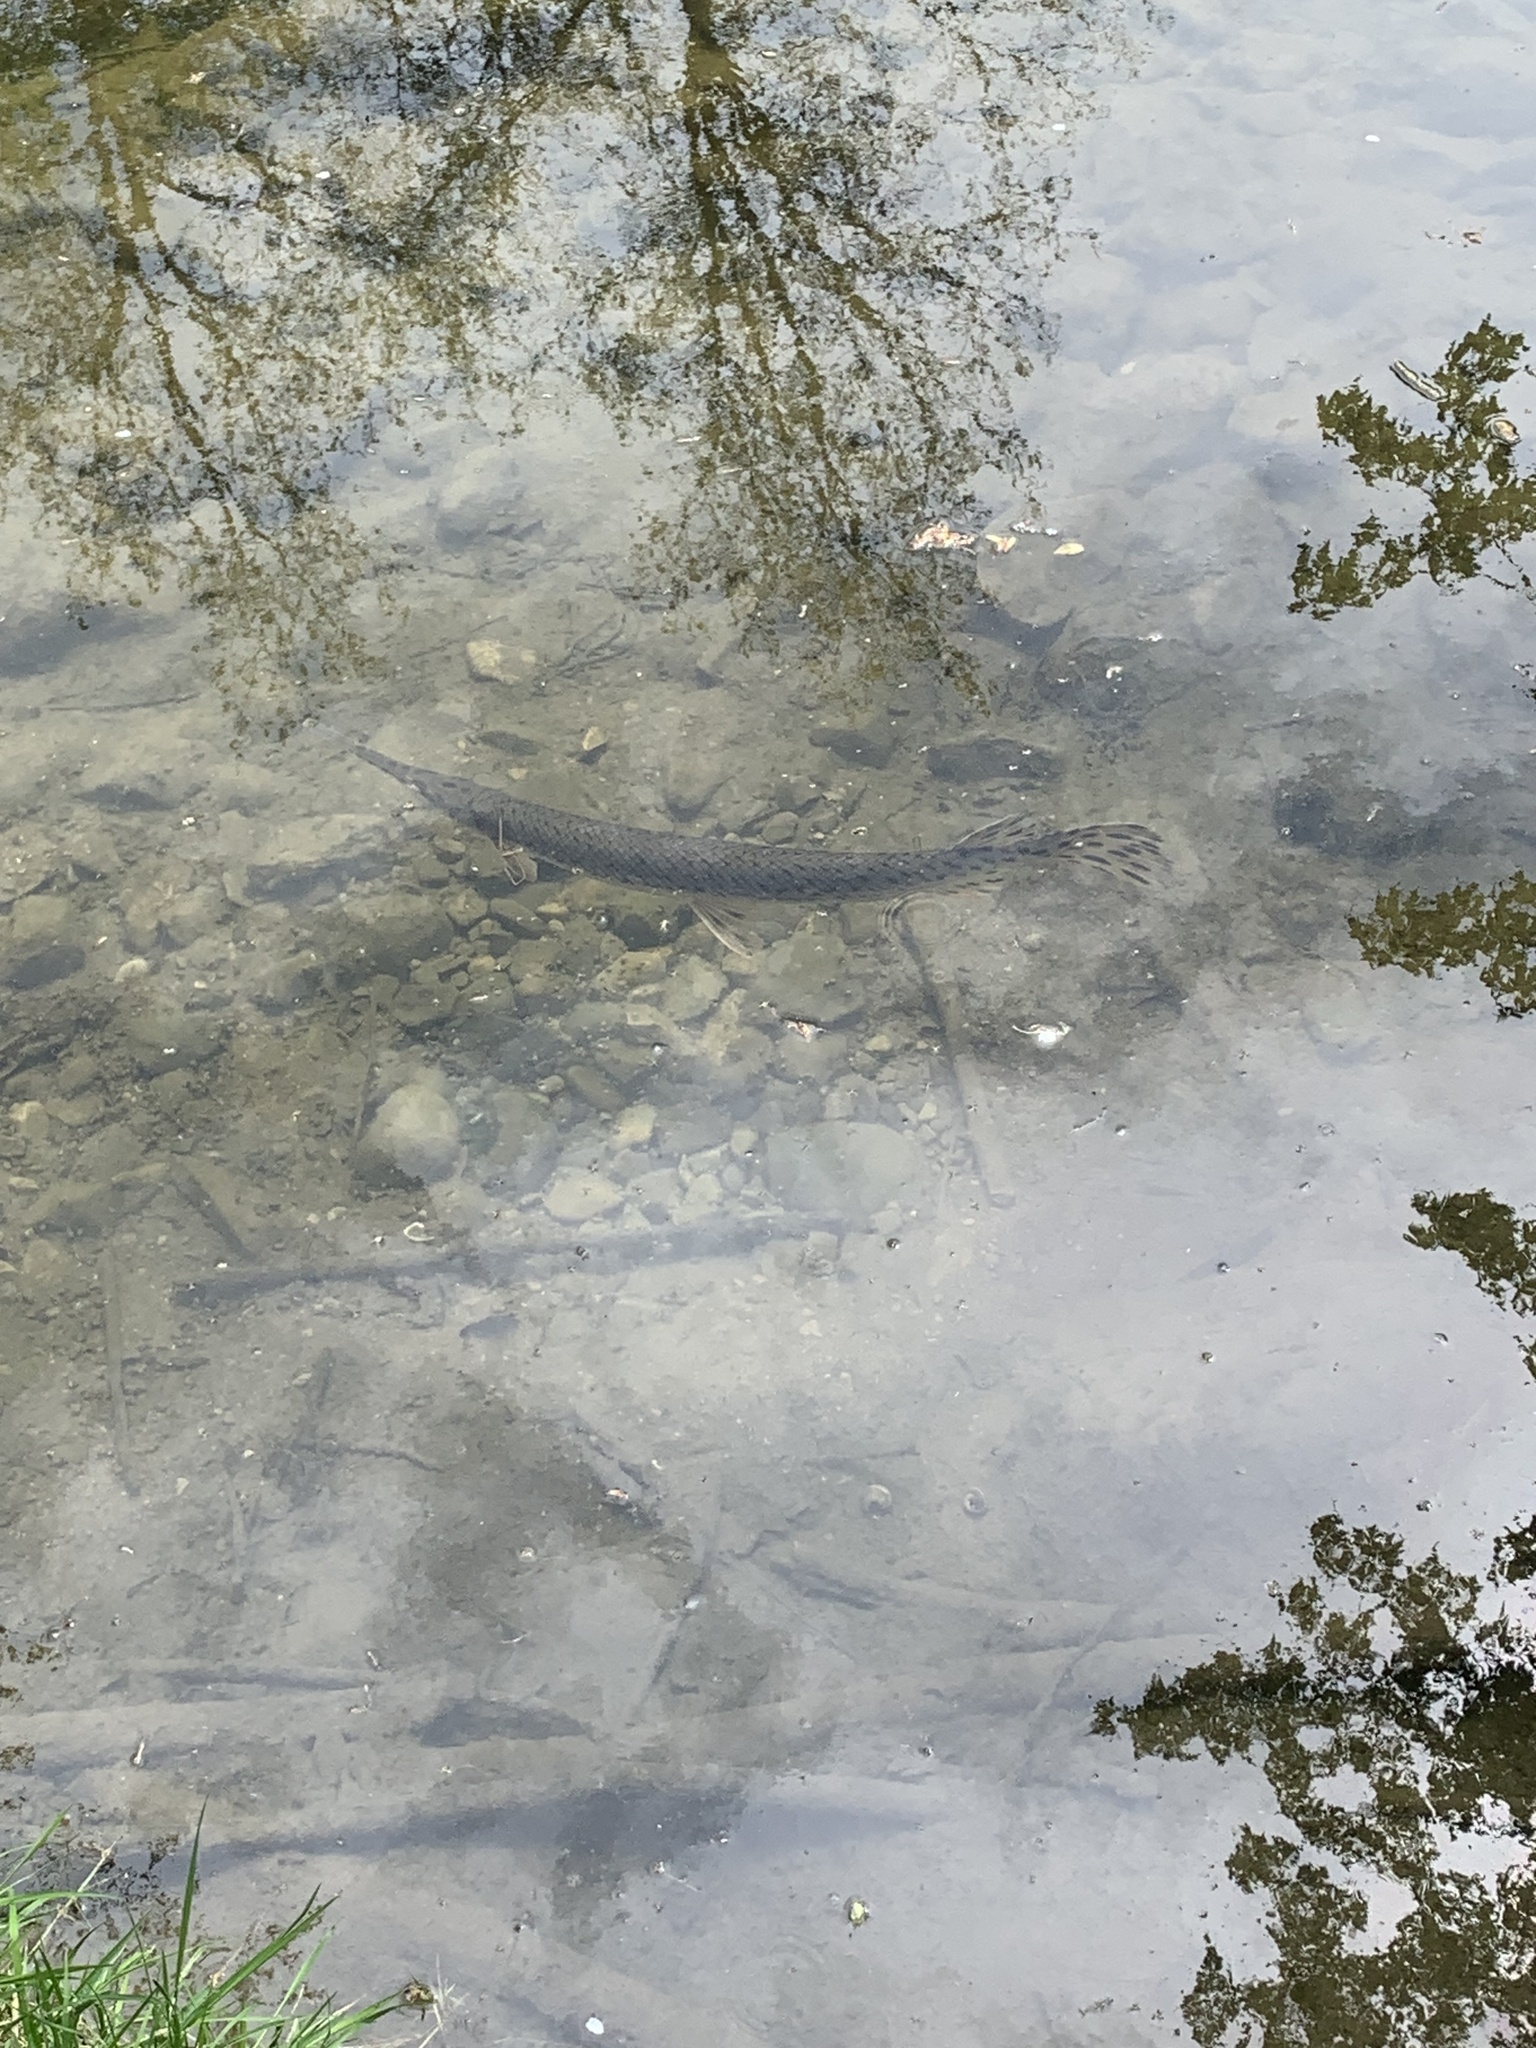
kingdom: Animalia
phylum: Chordata
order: Lepisosteiformes
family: Lepisosteidae
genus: Lepisosteus
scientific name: Lepisosteus osseus
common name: Longnose gar
